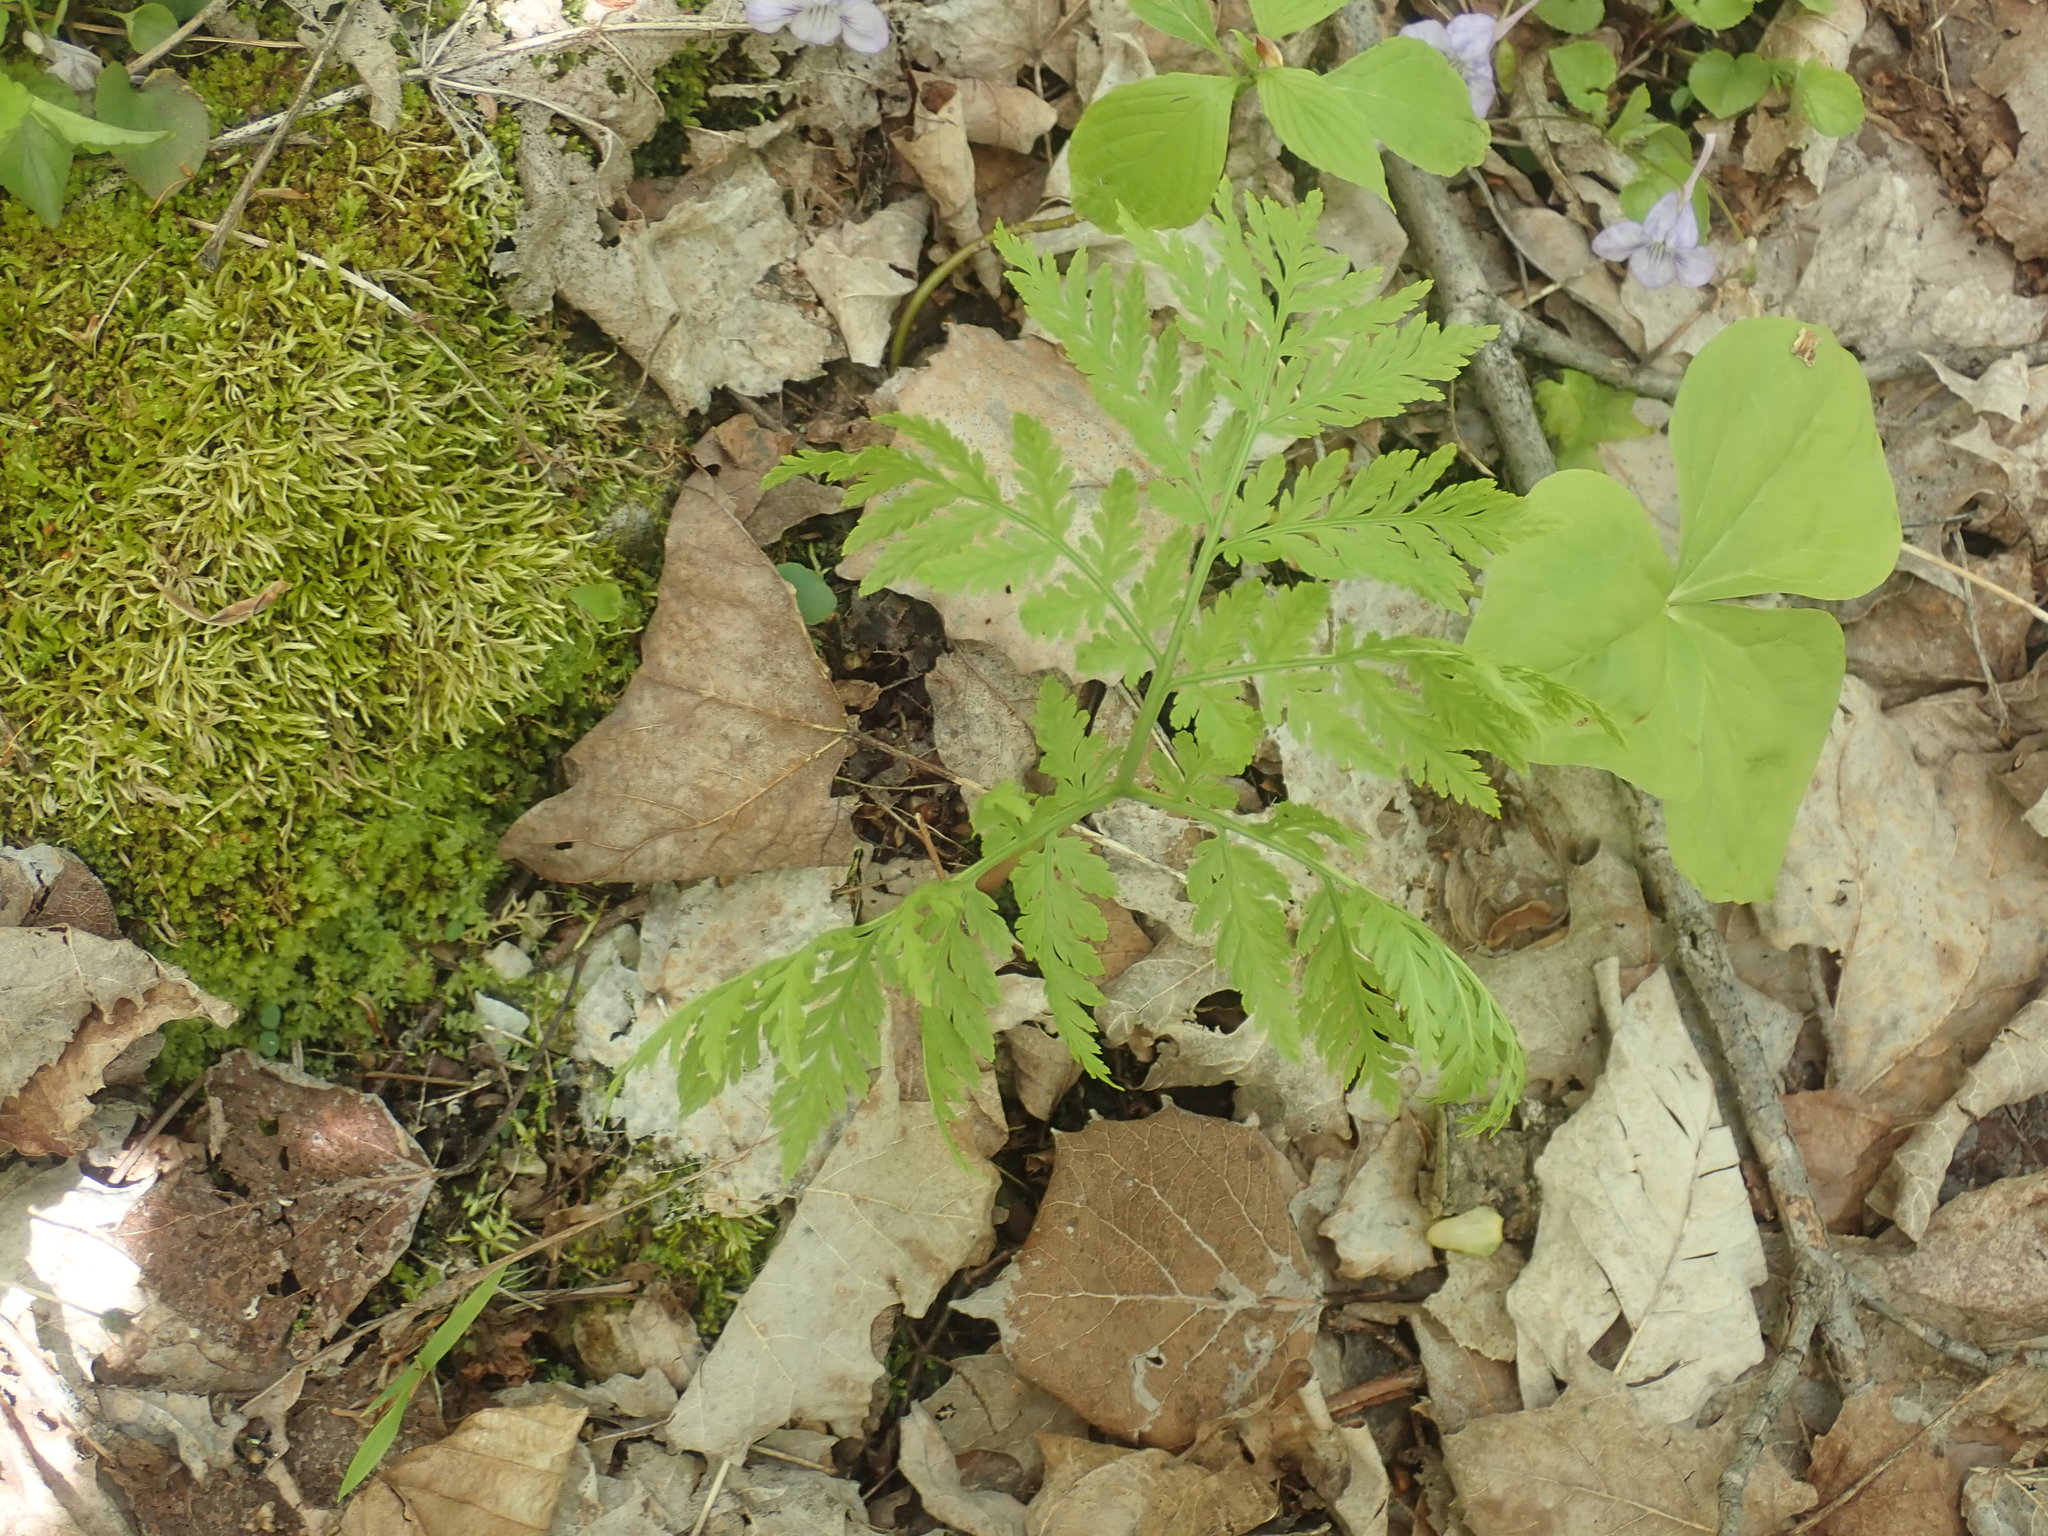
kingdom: Plantae
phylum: Tracheophyta
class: Polypodiopsida
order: Ophioglossales
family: Ophioglossaceae
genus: Botrypus
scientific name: Botrypus virginianus
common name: Common grapefern
